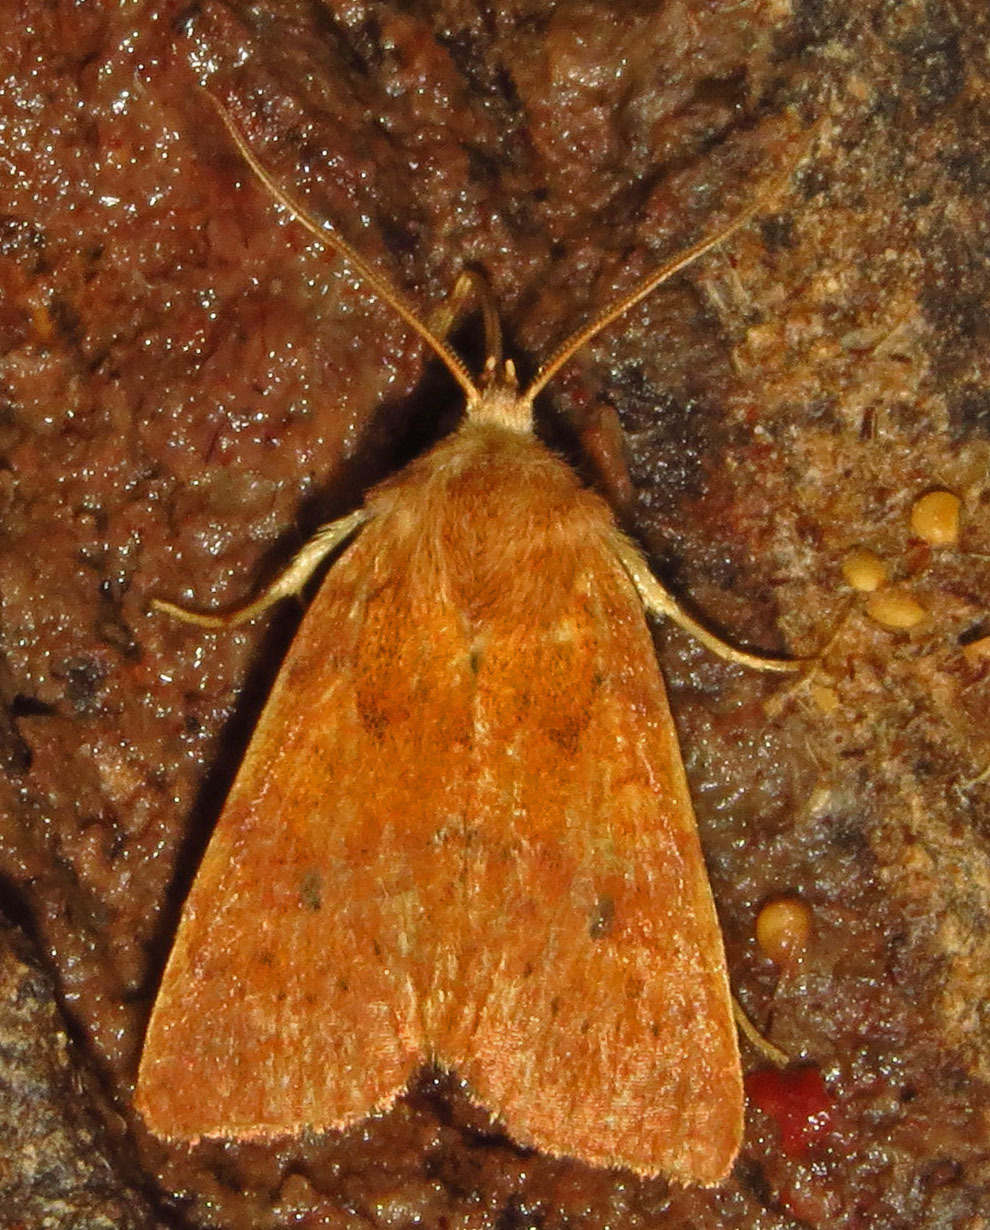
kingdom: Animalia
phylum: Arthropoda
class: Insecta
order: Lepidoptera
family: Noctuidae
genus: Agrochola
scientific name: Agrochola bicolorago
